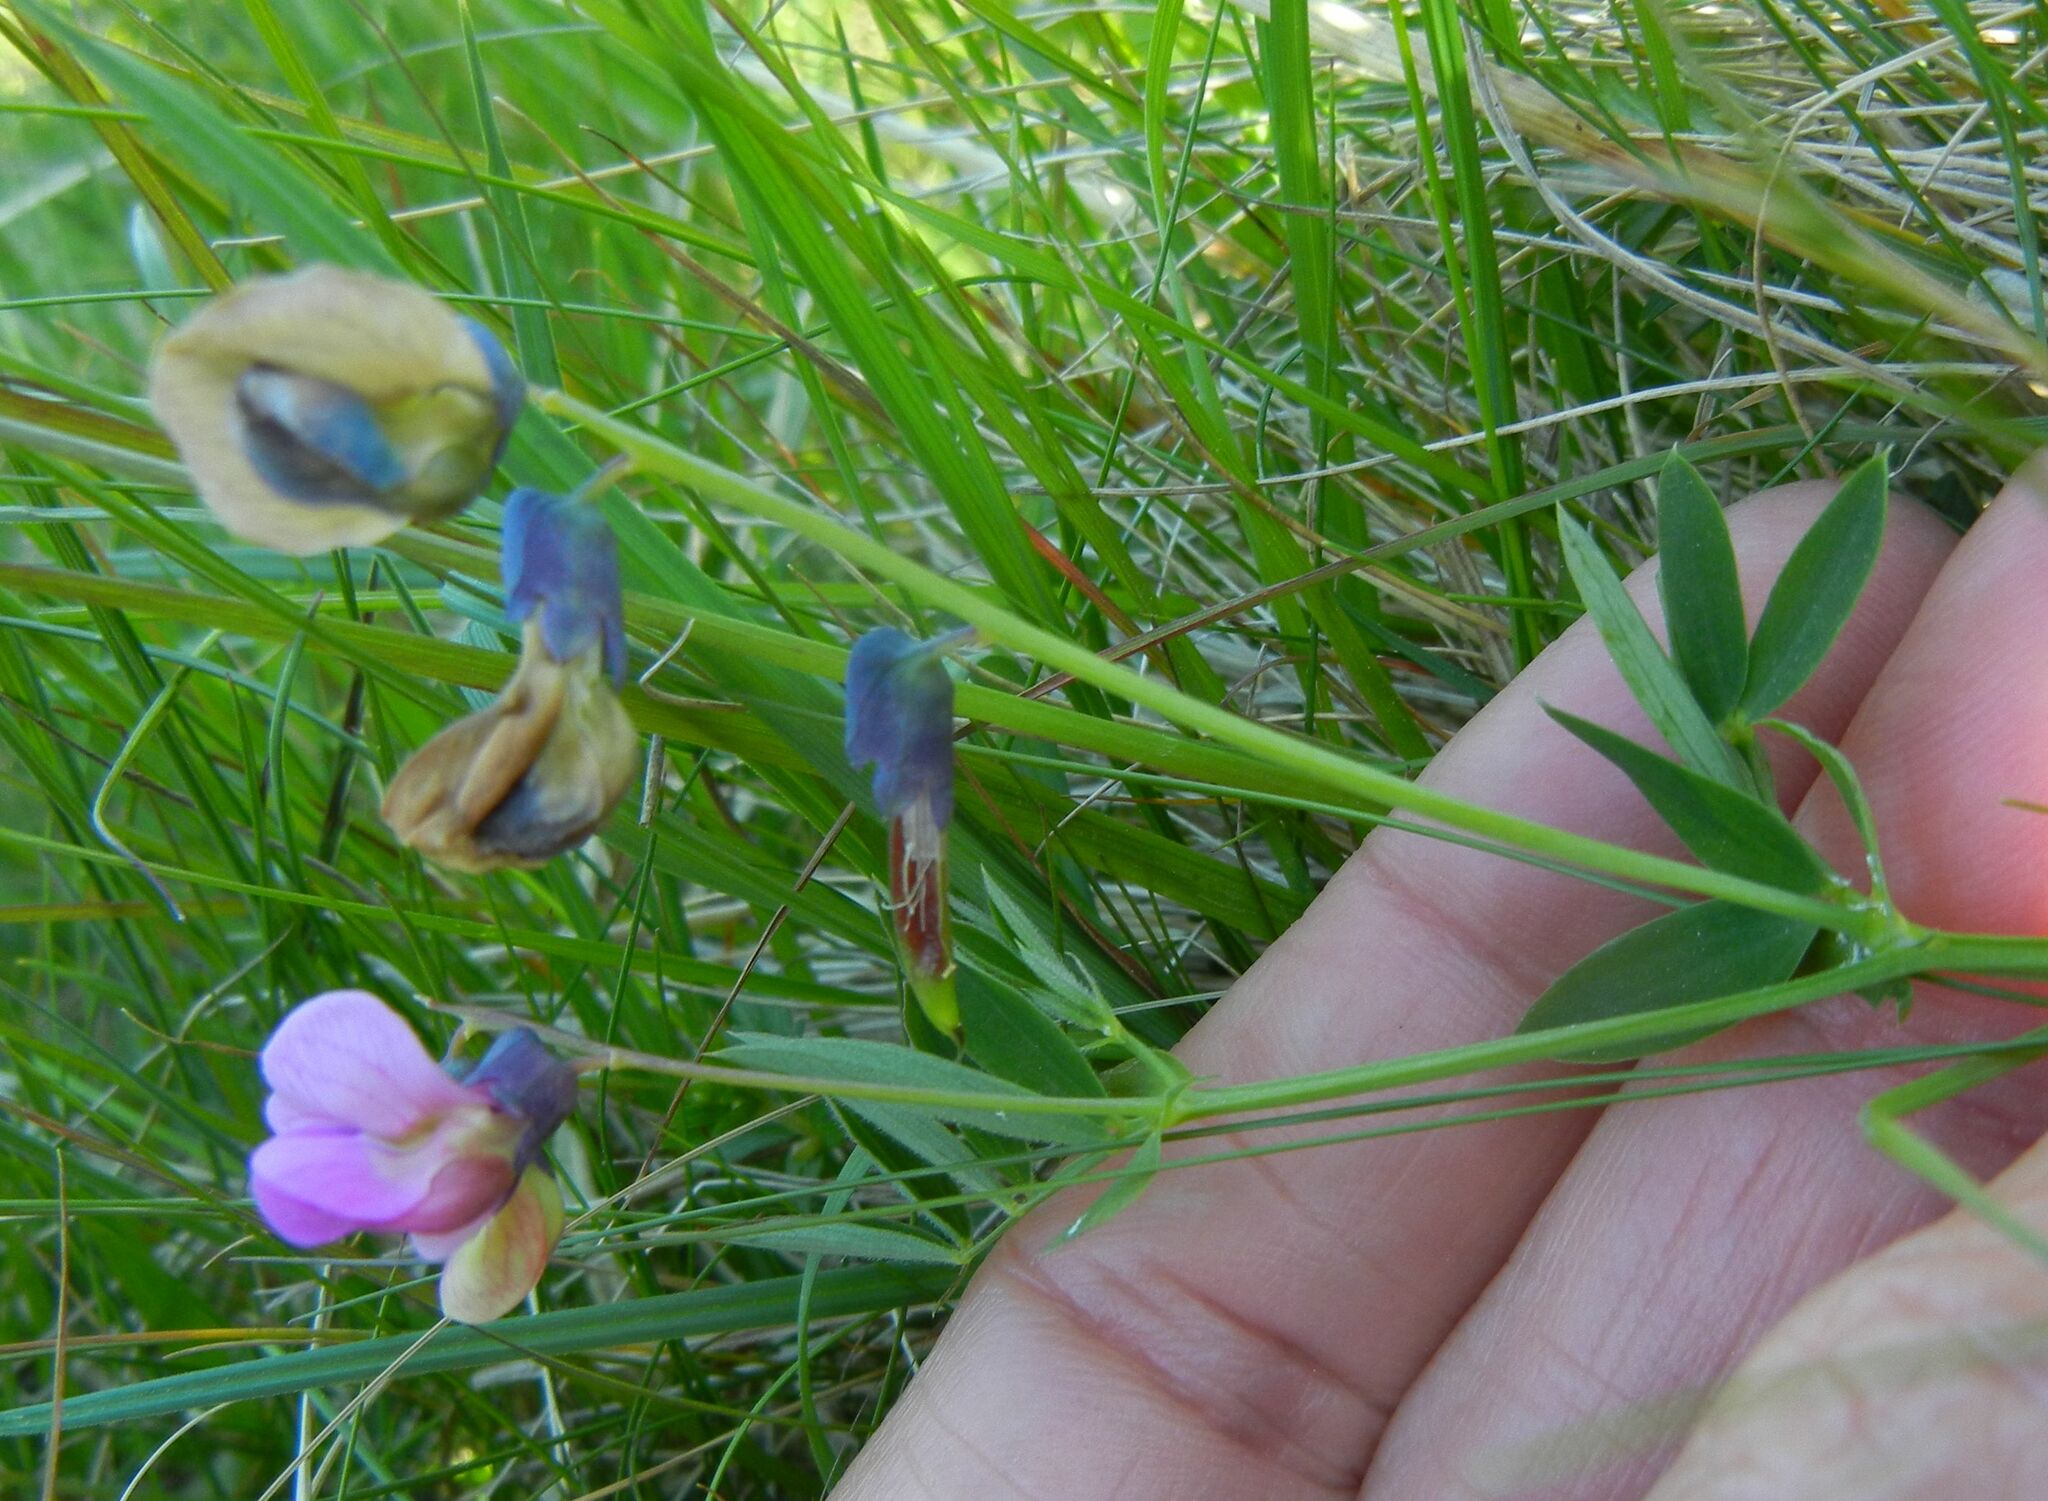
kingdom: Plantae
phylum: Tracheophyta
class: Magnoliopsida
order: Fabales
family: Fabaceae
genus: Lathyrus
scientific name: Lathyrus linifolius
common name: Bitter-vetch
